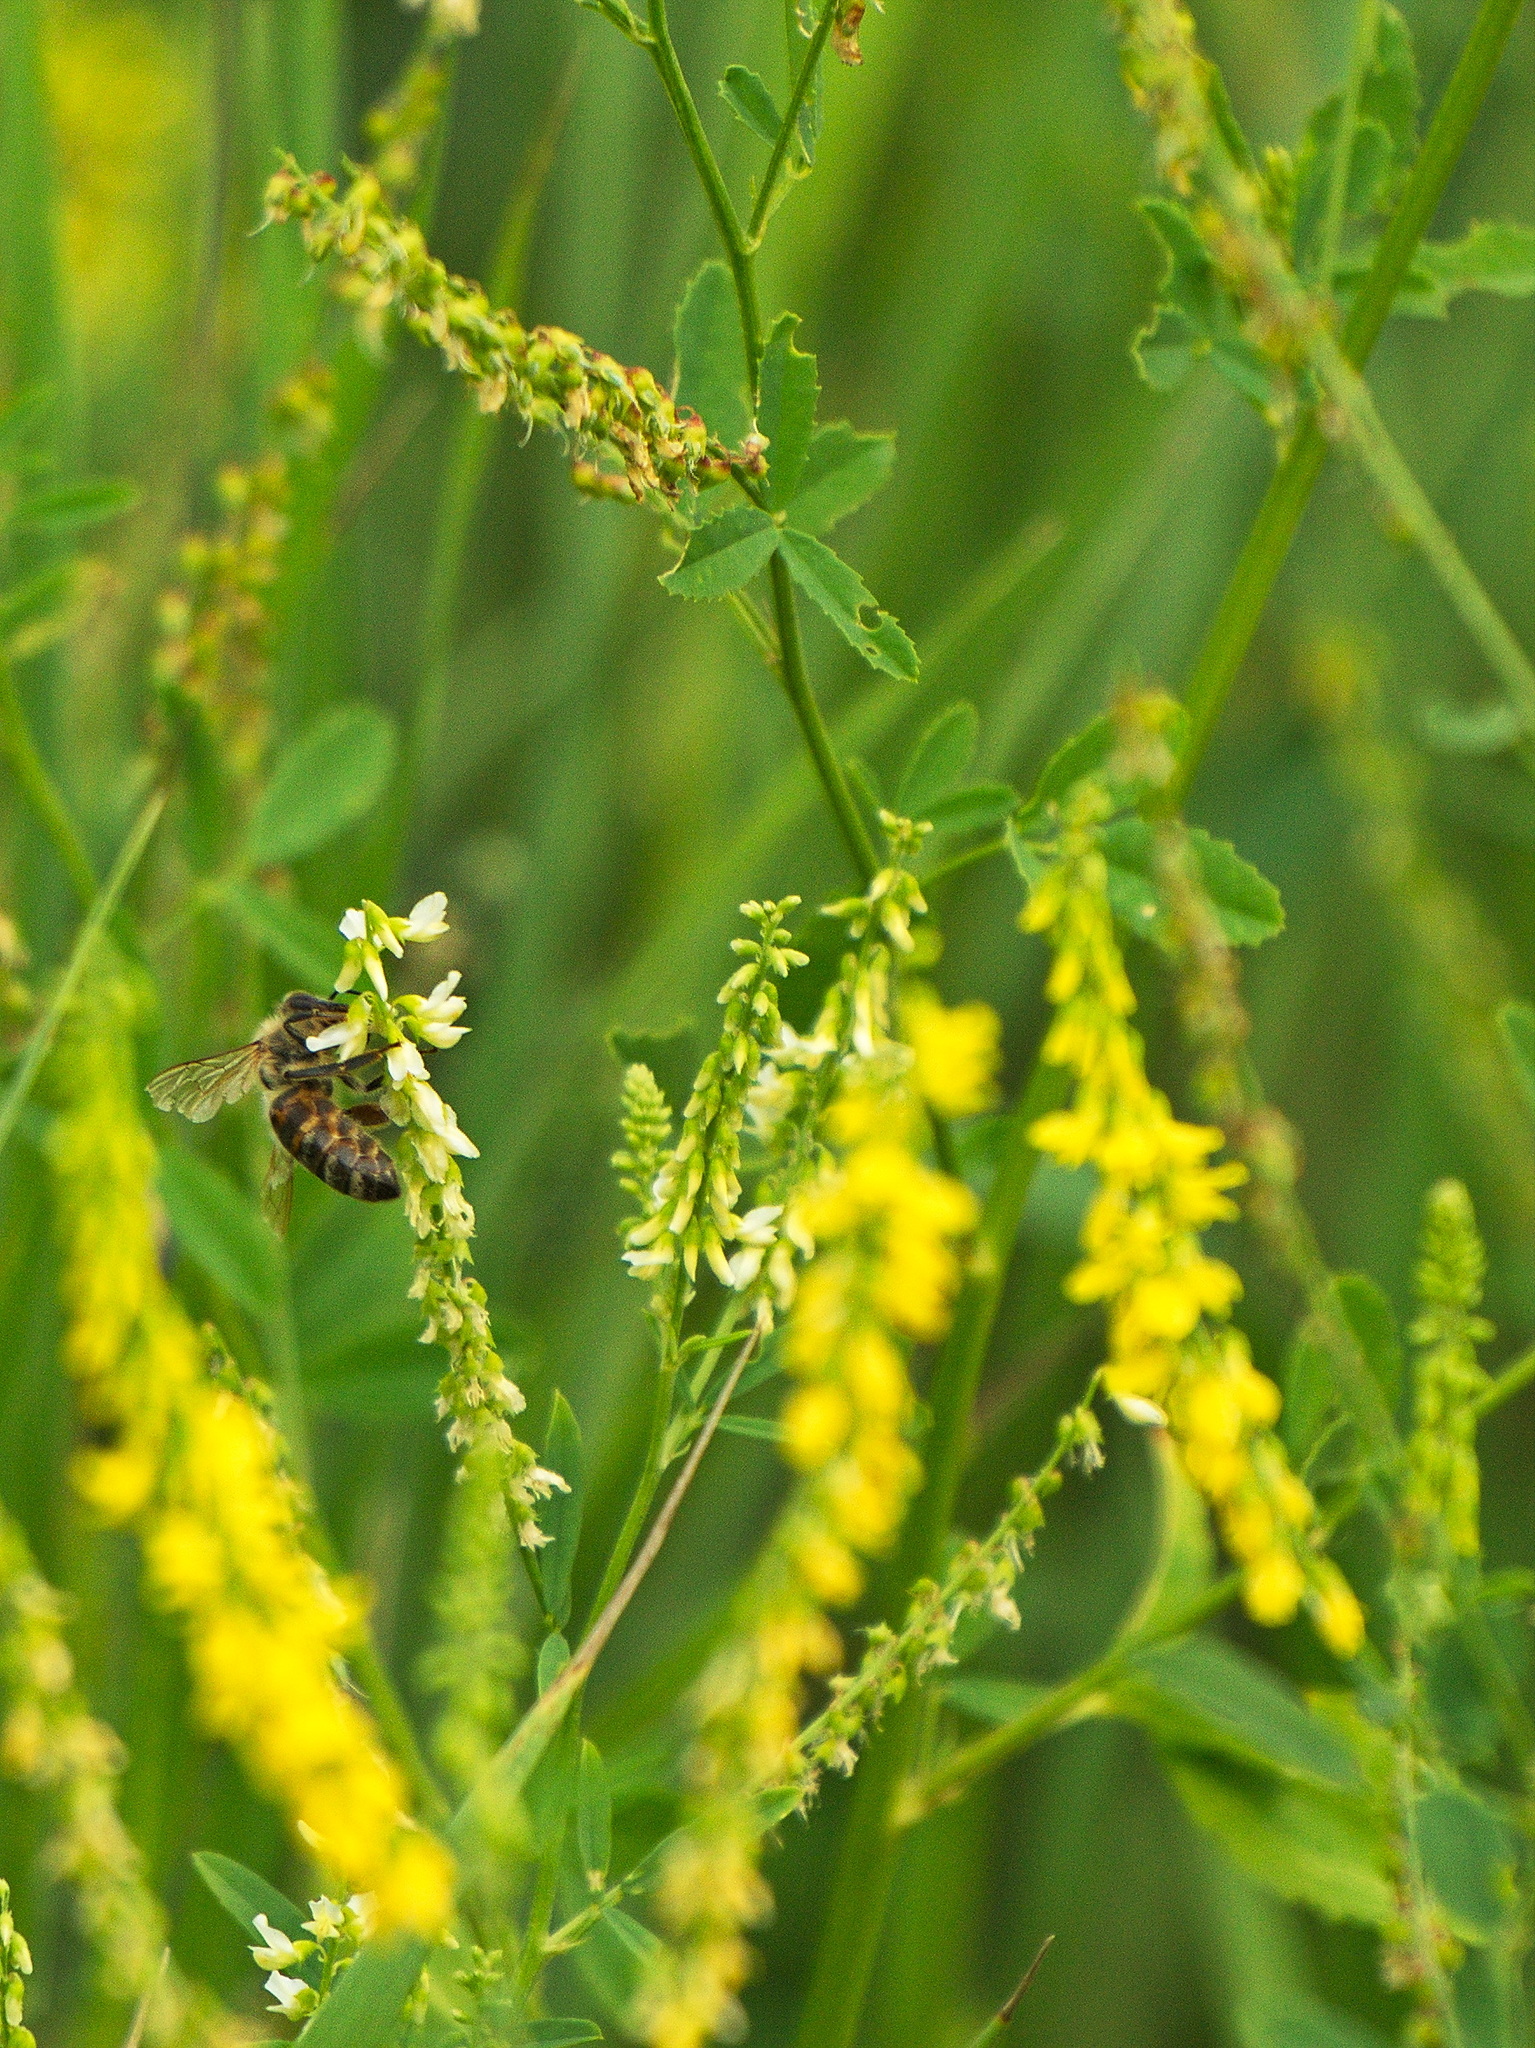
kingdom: Animalia
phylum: Arthropoda
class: Insecta
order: Hymenoptera
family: Apidae
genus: Apis
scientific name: Apis mellifera
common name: Honey bee
